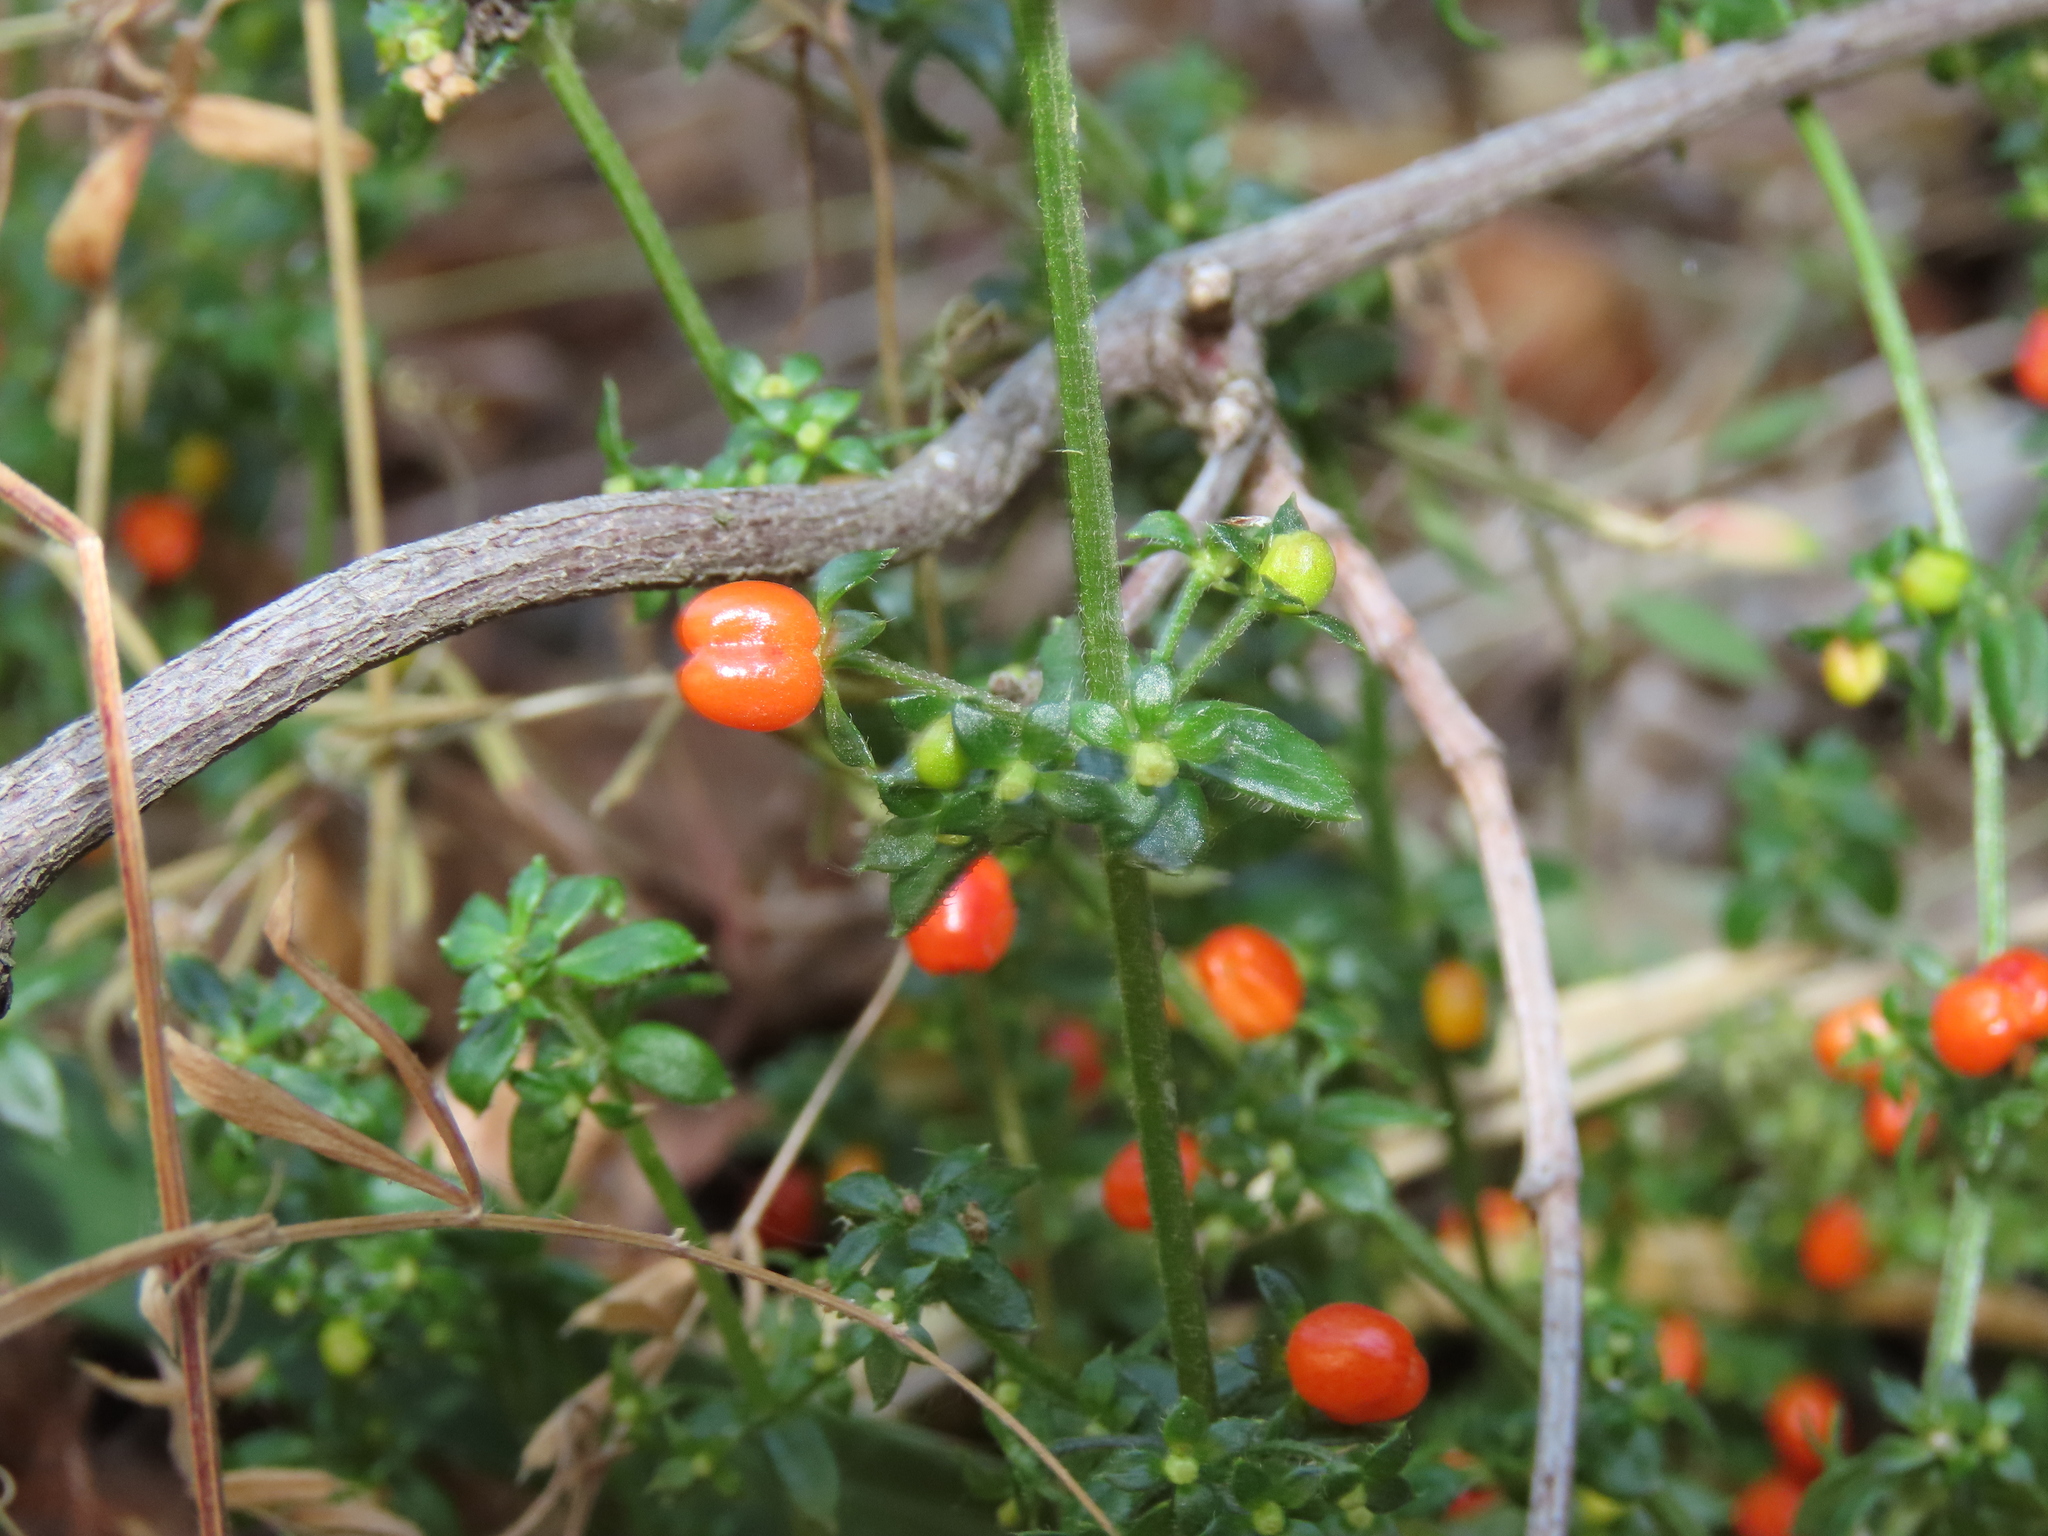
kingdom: Plantae
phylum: Tracheophyta
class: Magnoliopsida
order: Gentianales
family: Rubiaceae
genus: Galium
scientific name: Galium hypocarpium
